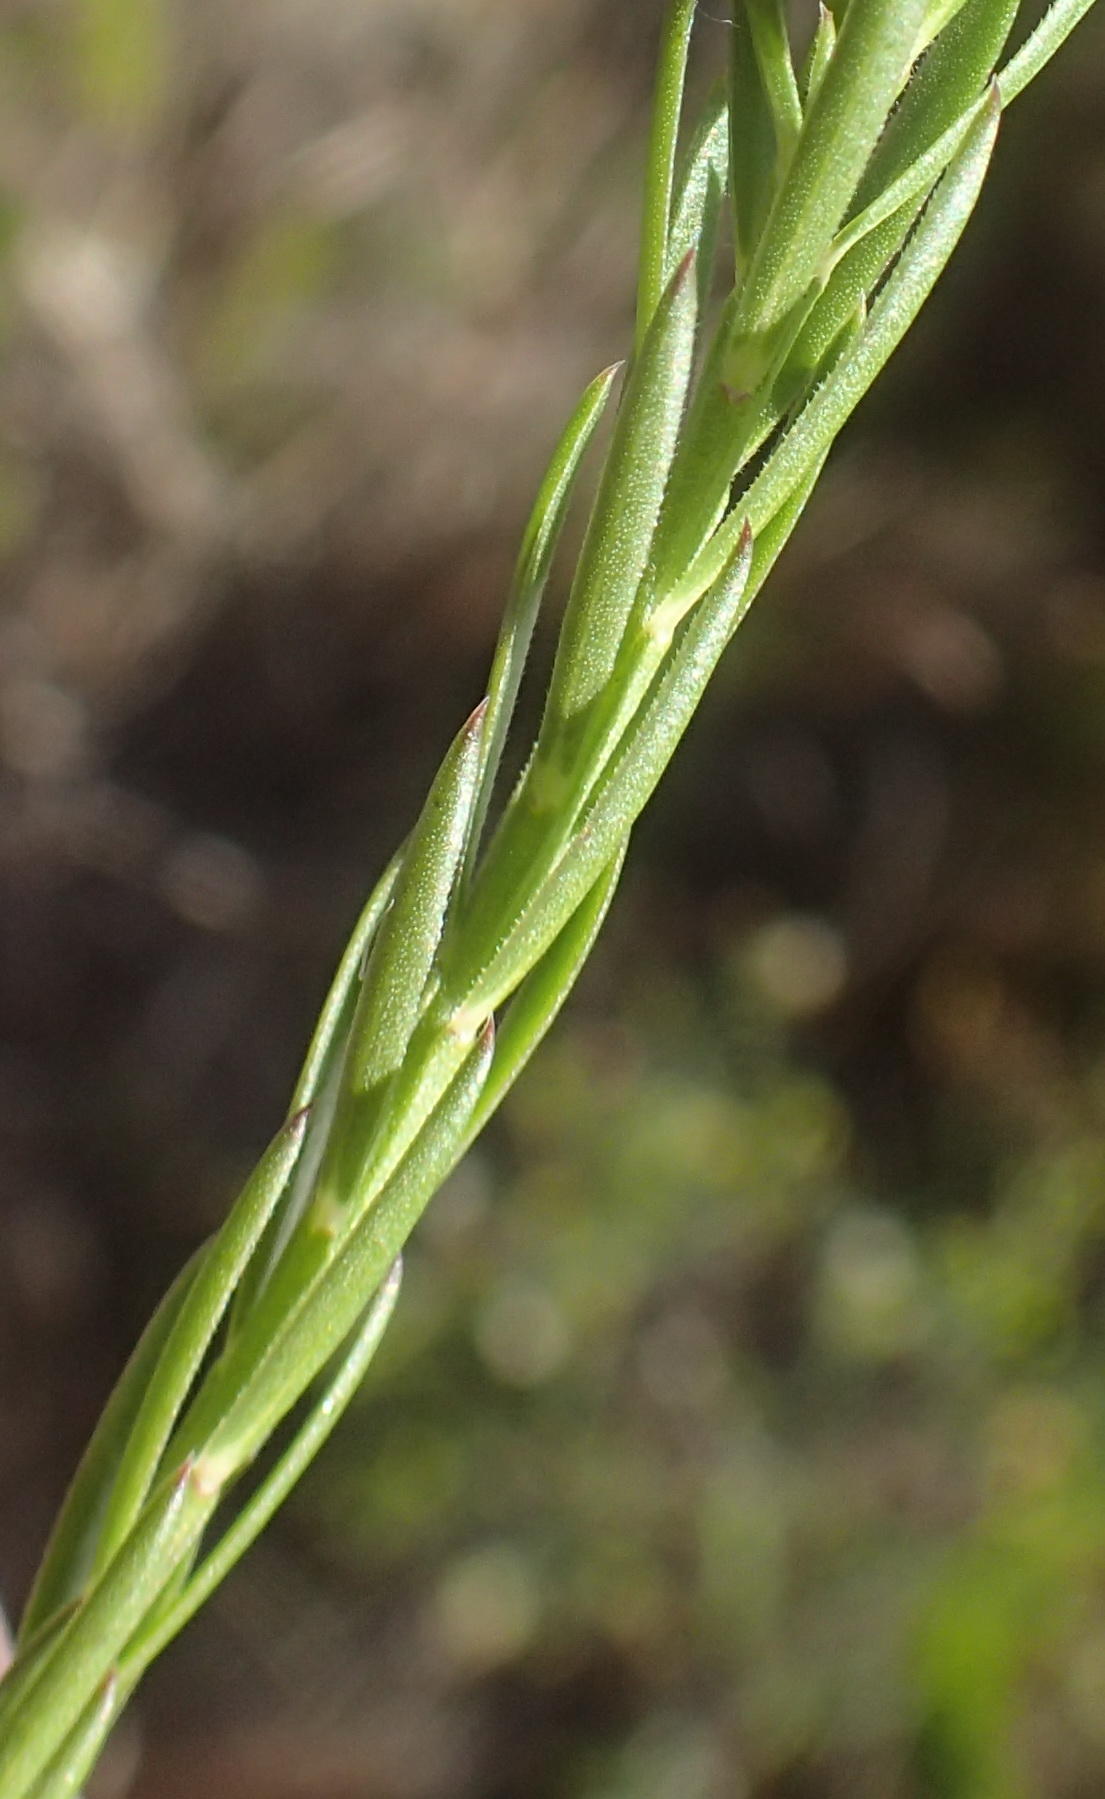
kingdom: Plantae
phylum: Tracheophyta
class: Magnoliopsida
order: Fabales
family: Polygalaceae
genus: Polygala
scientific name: Polygala ericifolia
